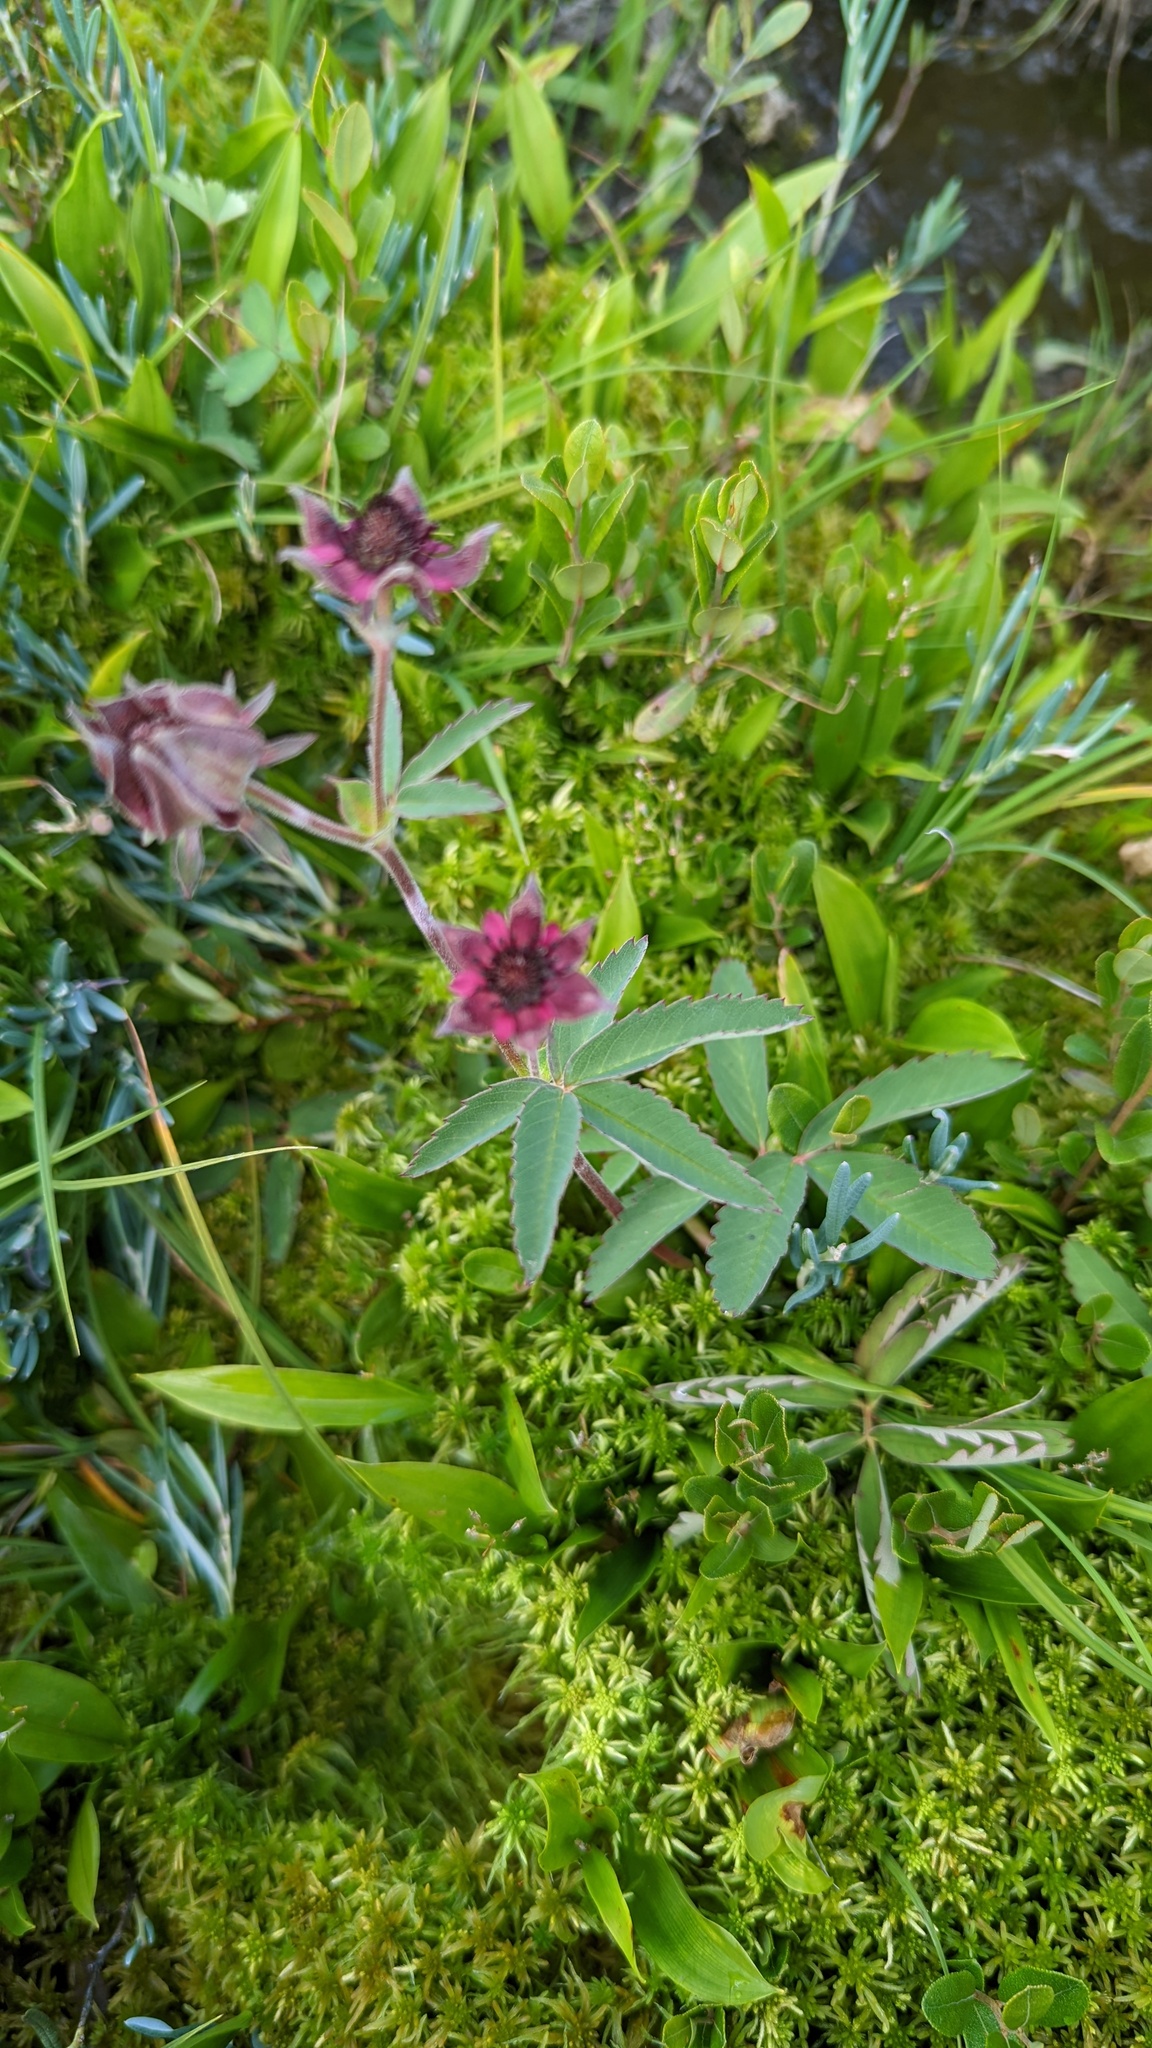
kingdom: Plantae
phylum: Tracheophyta
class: Magnoliopsida
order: Rosales
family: Rosaceae
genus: Comarum
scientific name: Comarum palustre
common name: Marsh cinquefoil
